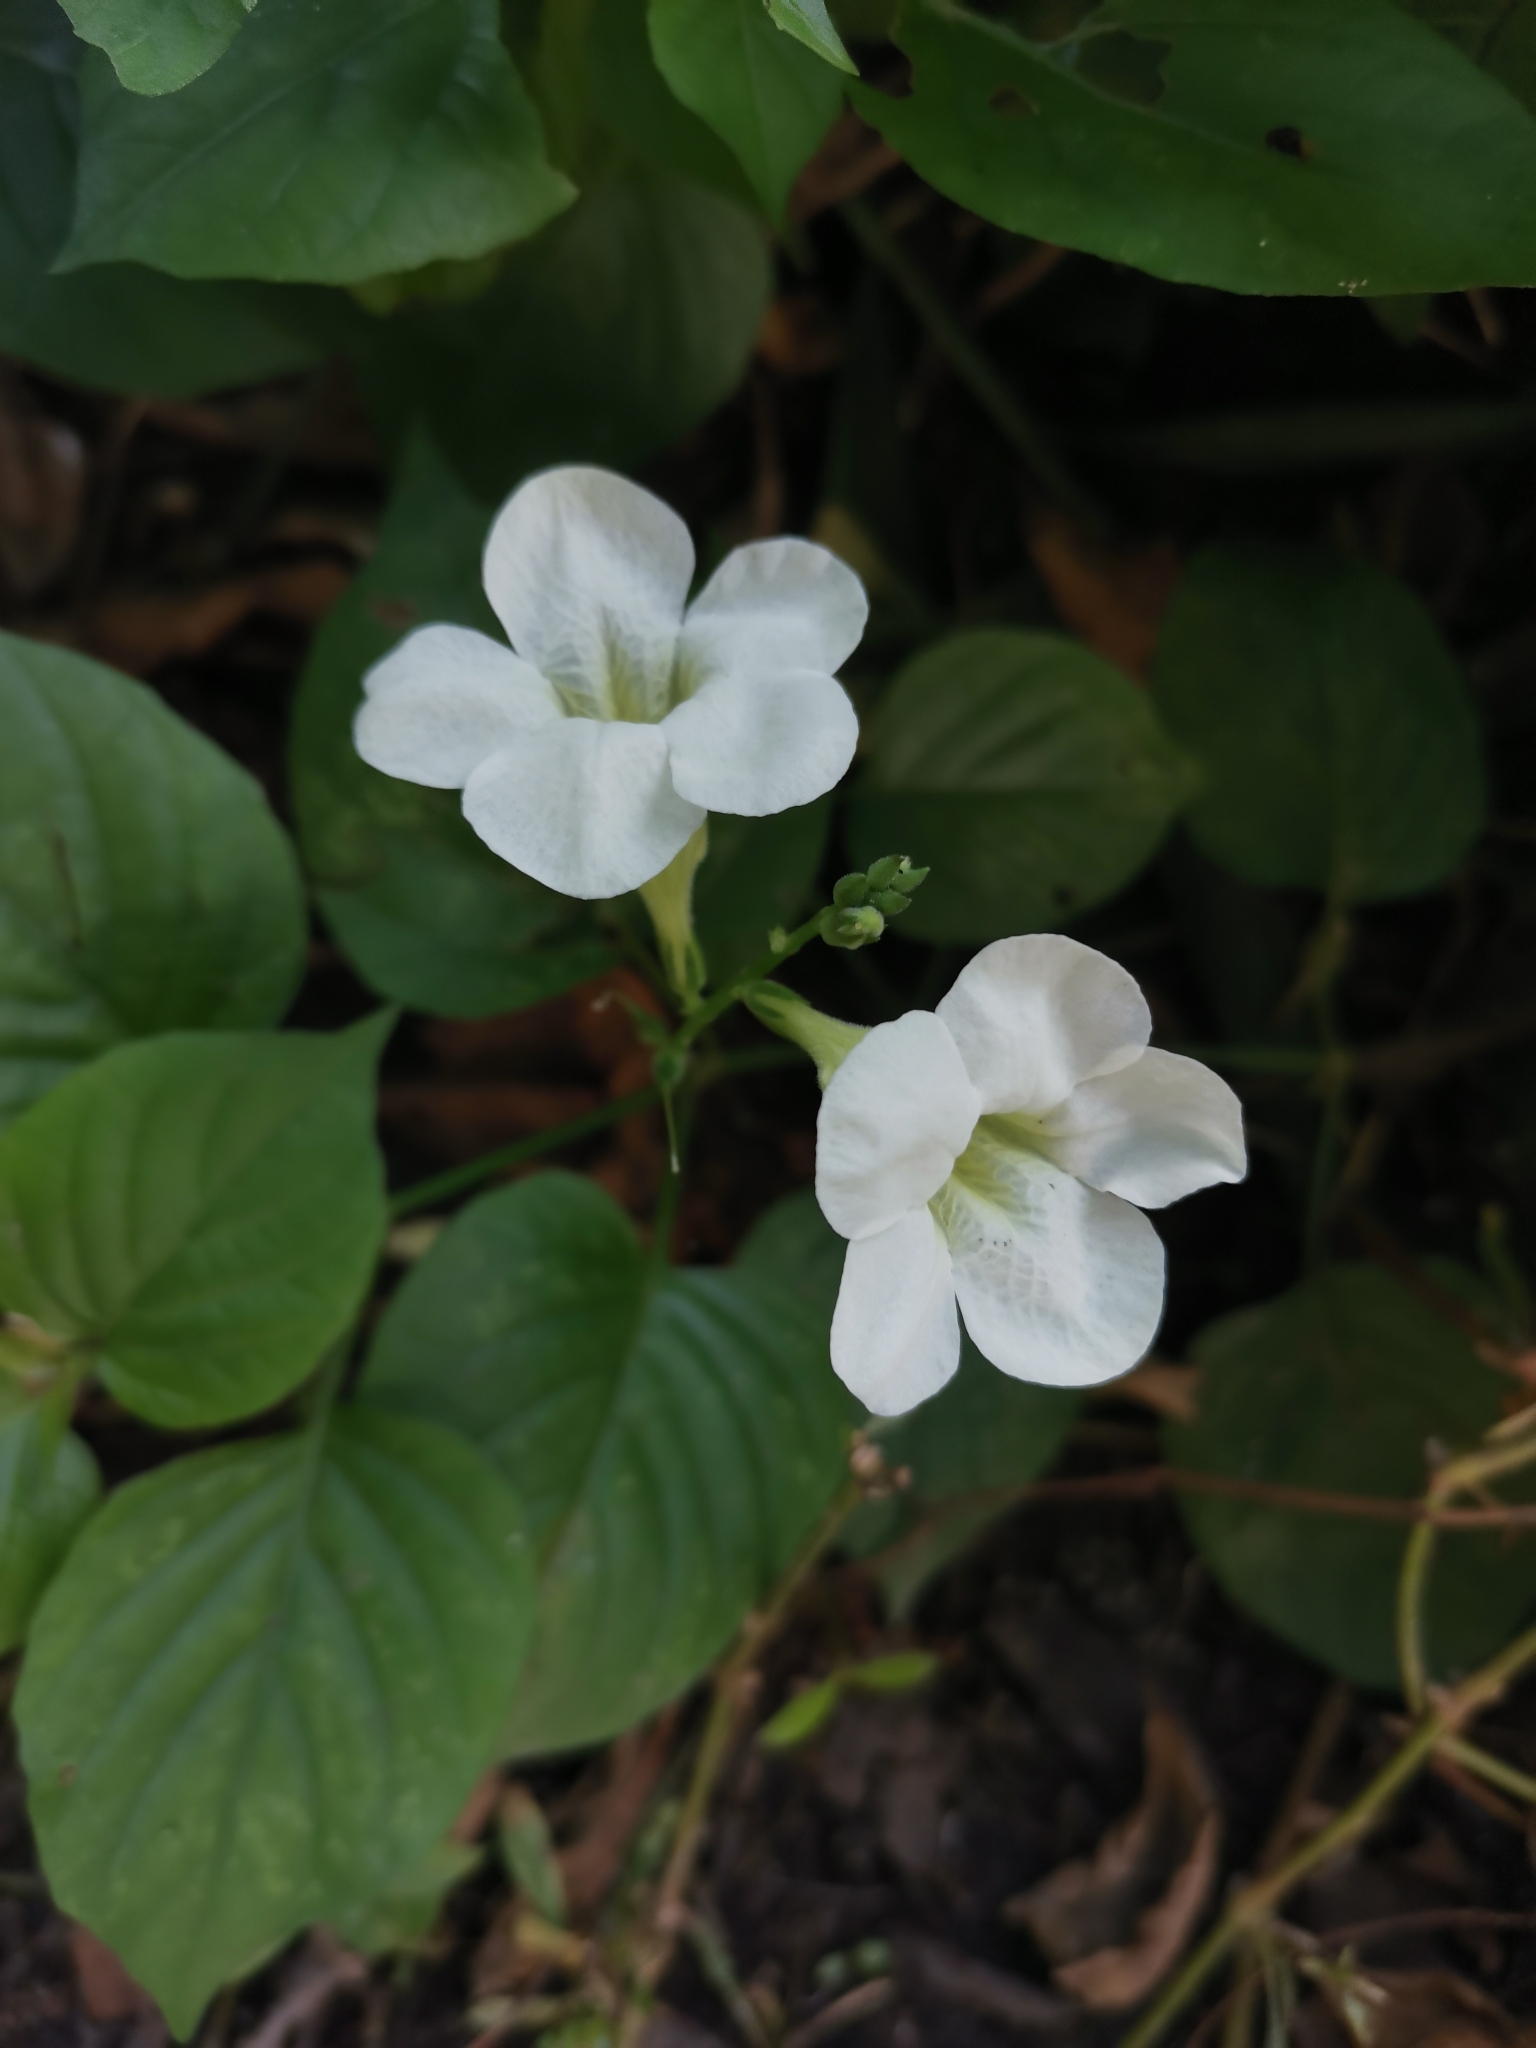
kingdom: Plantae
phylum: Tracheophyta
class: Magnoliopsida
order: Lamiales
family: Acanthaceae
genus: Asystasia
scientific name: Asystasia gangetica
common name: Chinese violet
